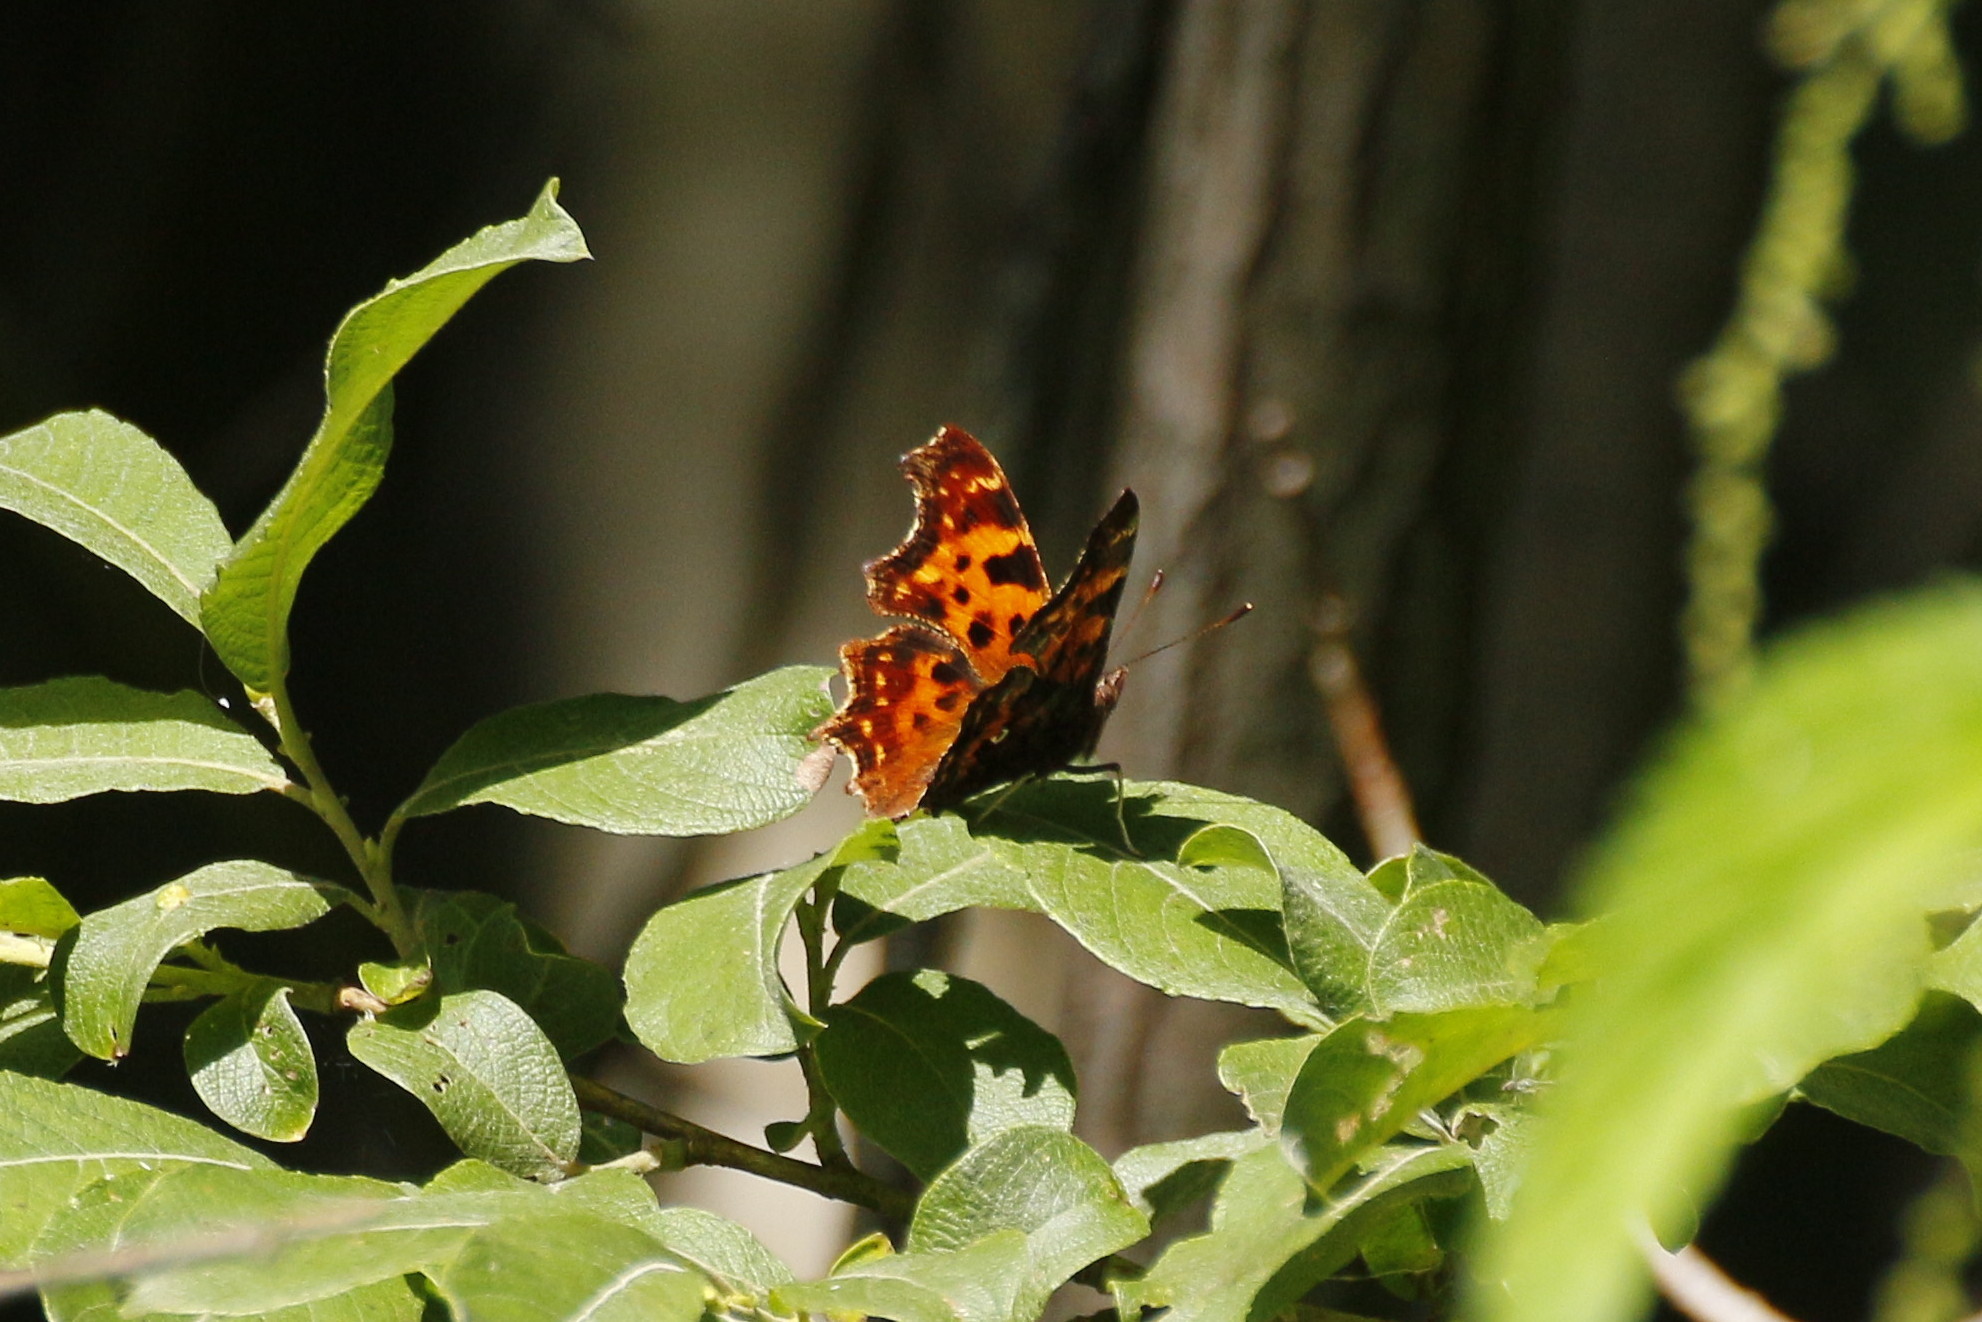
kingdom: Animalia
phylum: Arthropoda
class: Insecta
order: Lepidoptera
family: Nymphalidae
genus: Polygonia
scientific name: Polygonia c-album
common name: Comma
